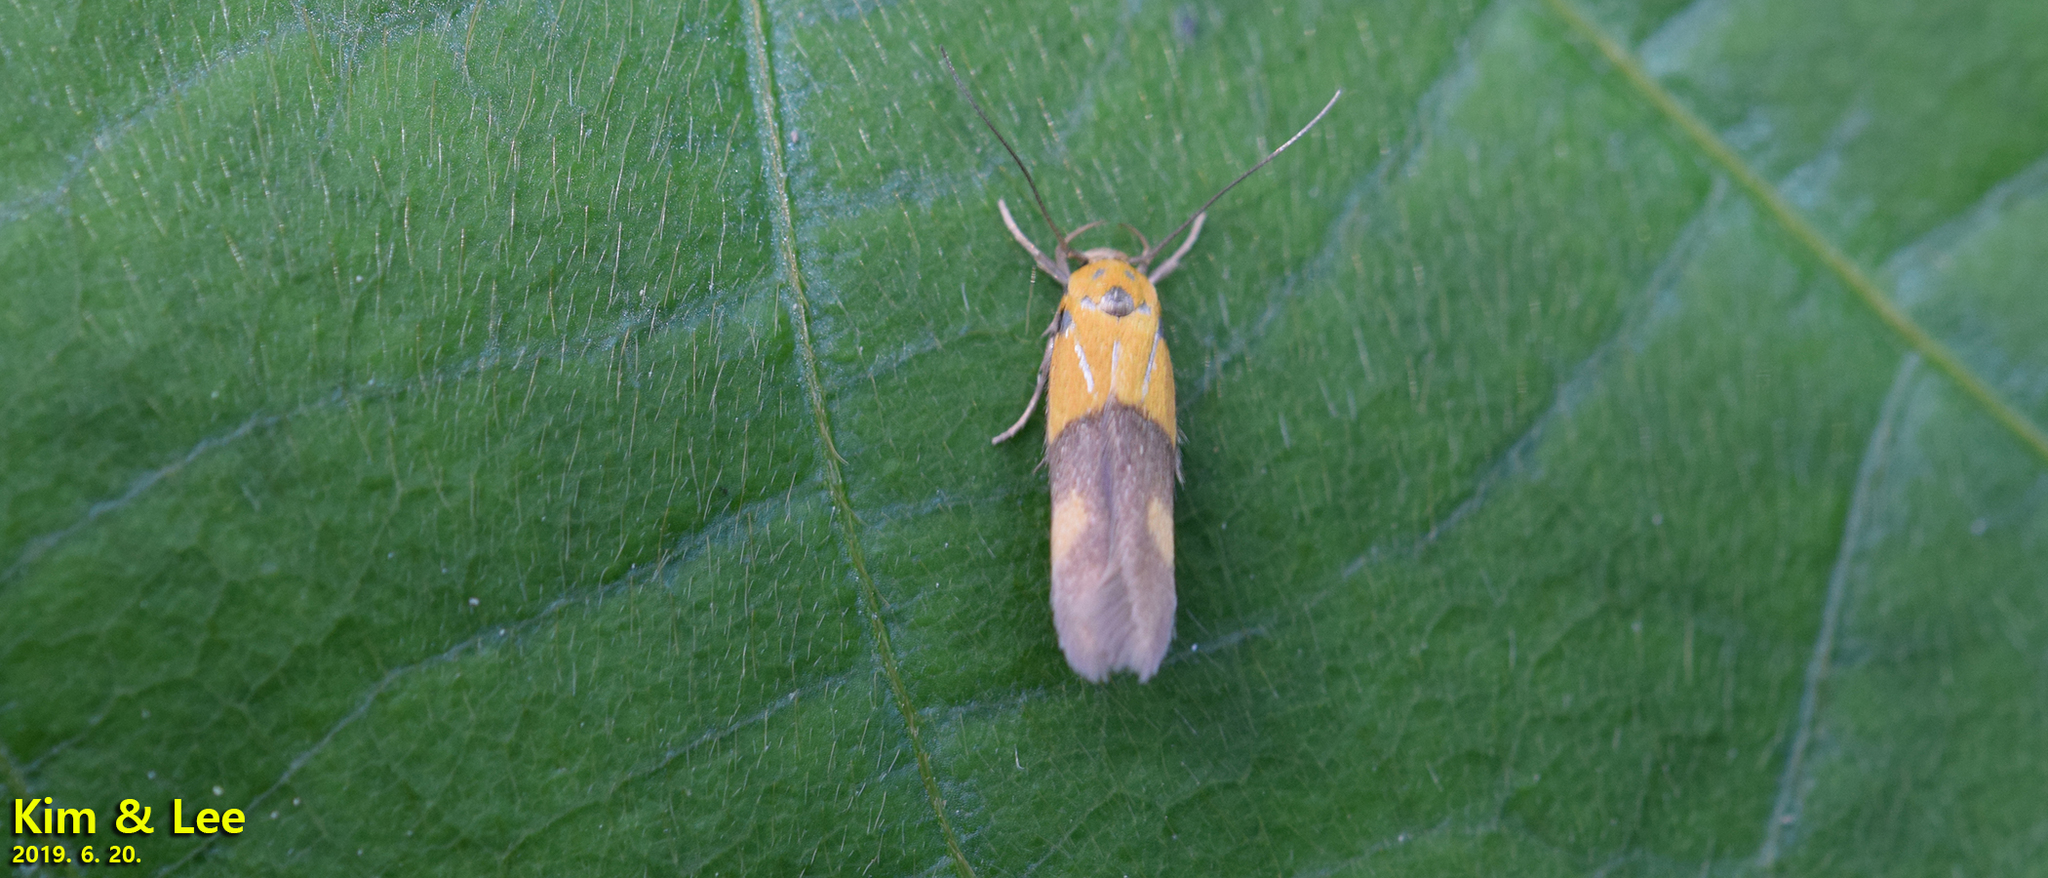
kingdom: Animalia
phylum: Arthropoda
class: Insecta
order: Lepidoptera
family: Stathmopodidae
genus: Stathmopoda
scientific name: Stathmopoda auriferella
